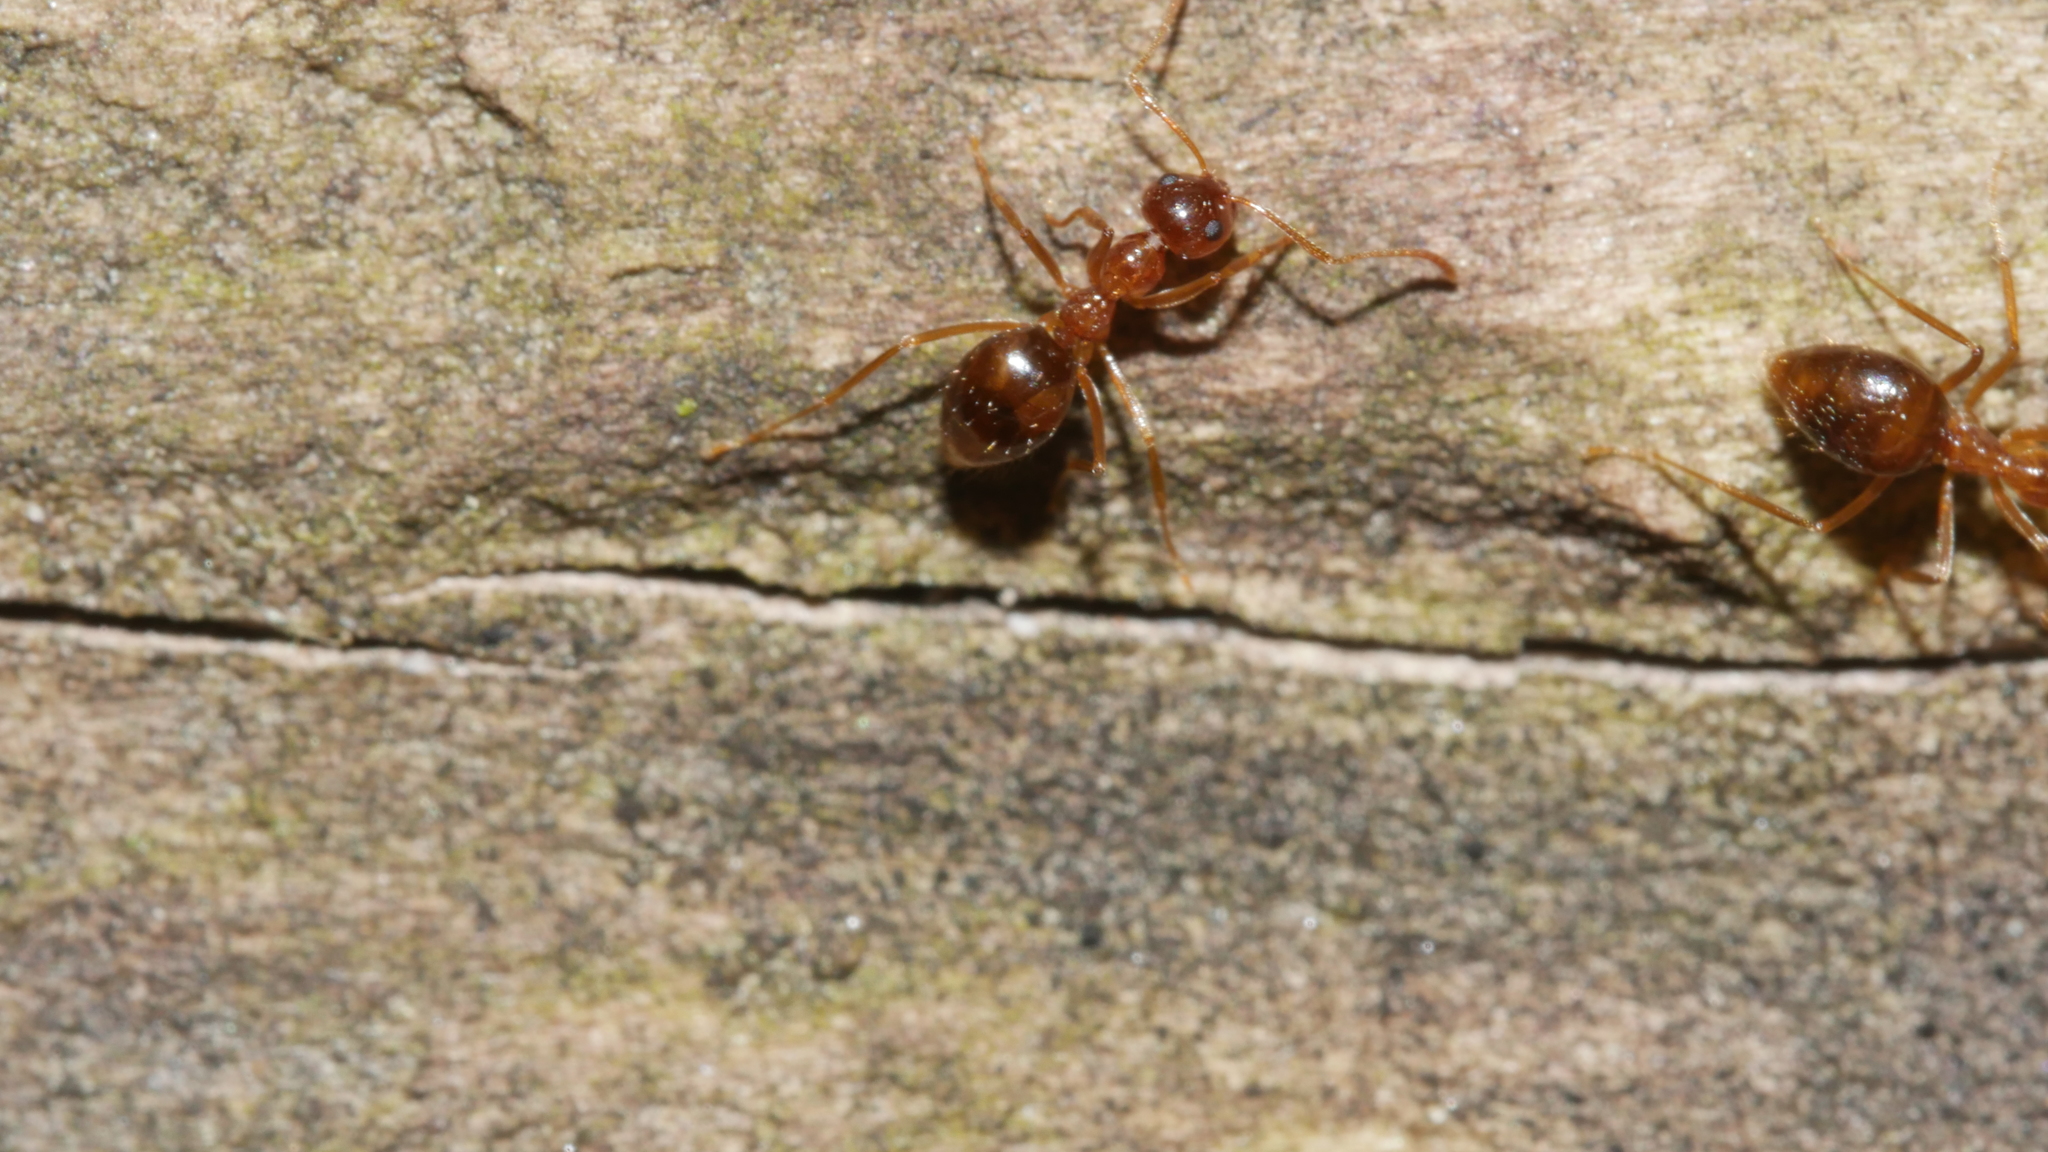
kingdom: Animalia
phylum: Arthropoda
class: Insecta
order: Hymenoptera
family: Formicidae
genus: Prenolepis
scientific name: Prenolepis imparis
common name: Small honey ant
